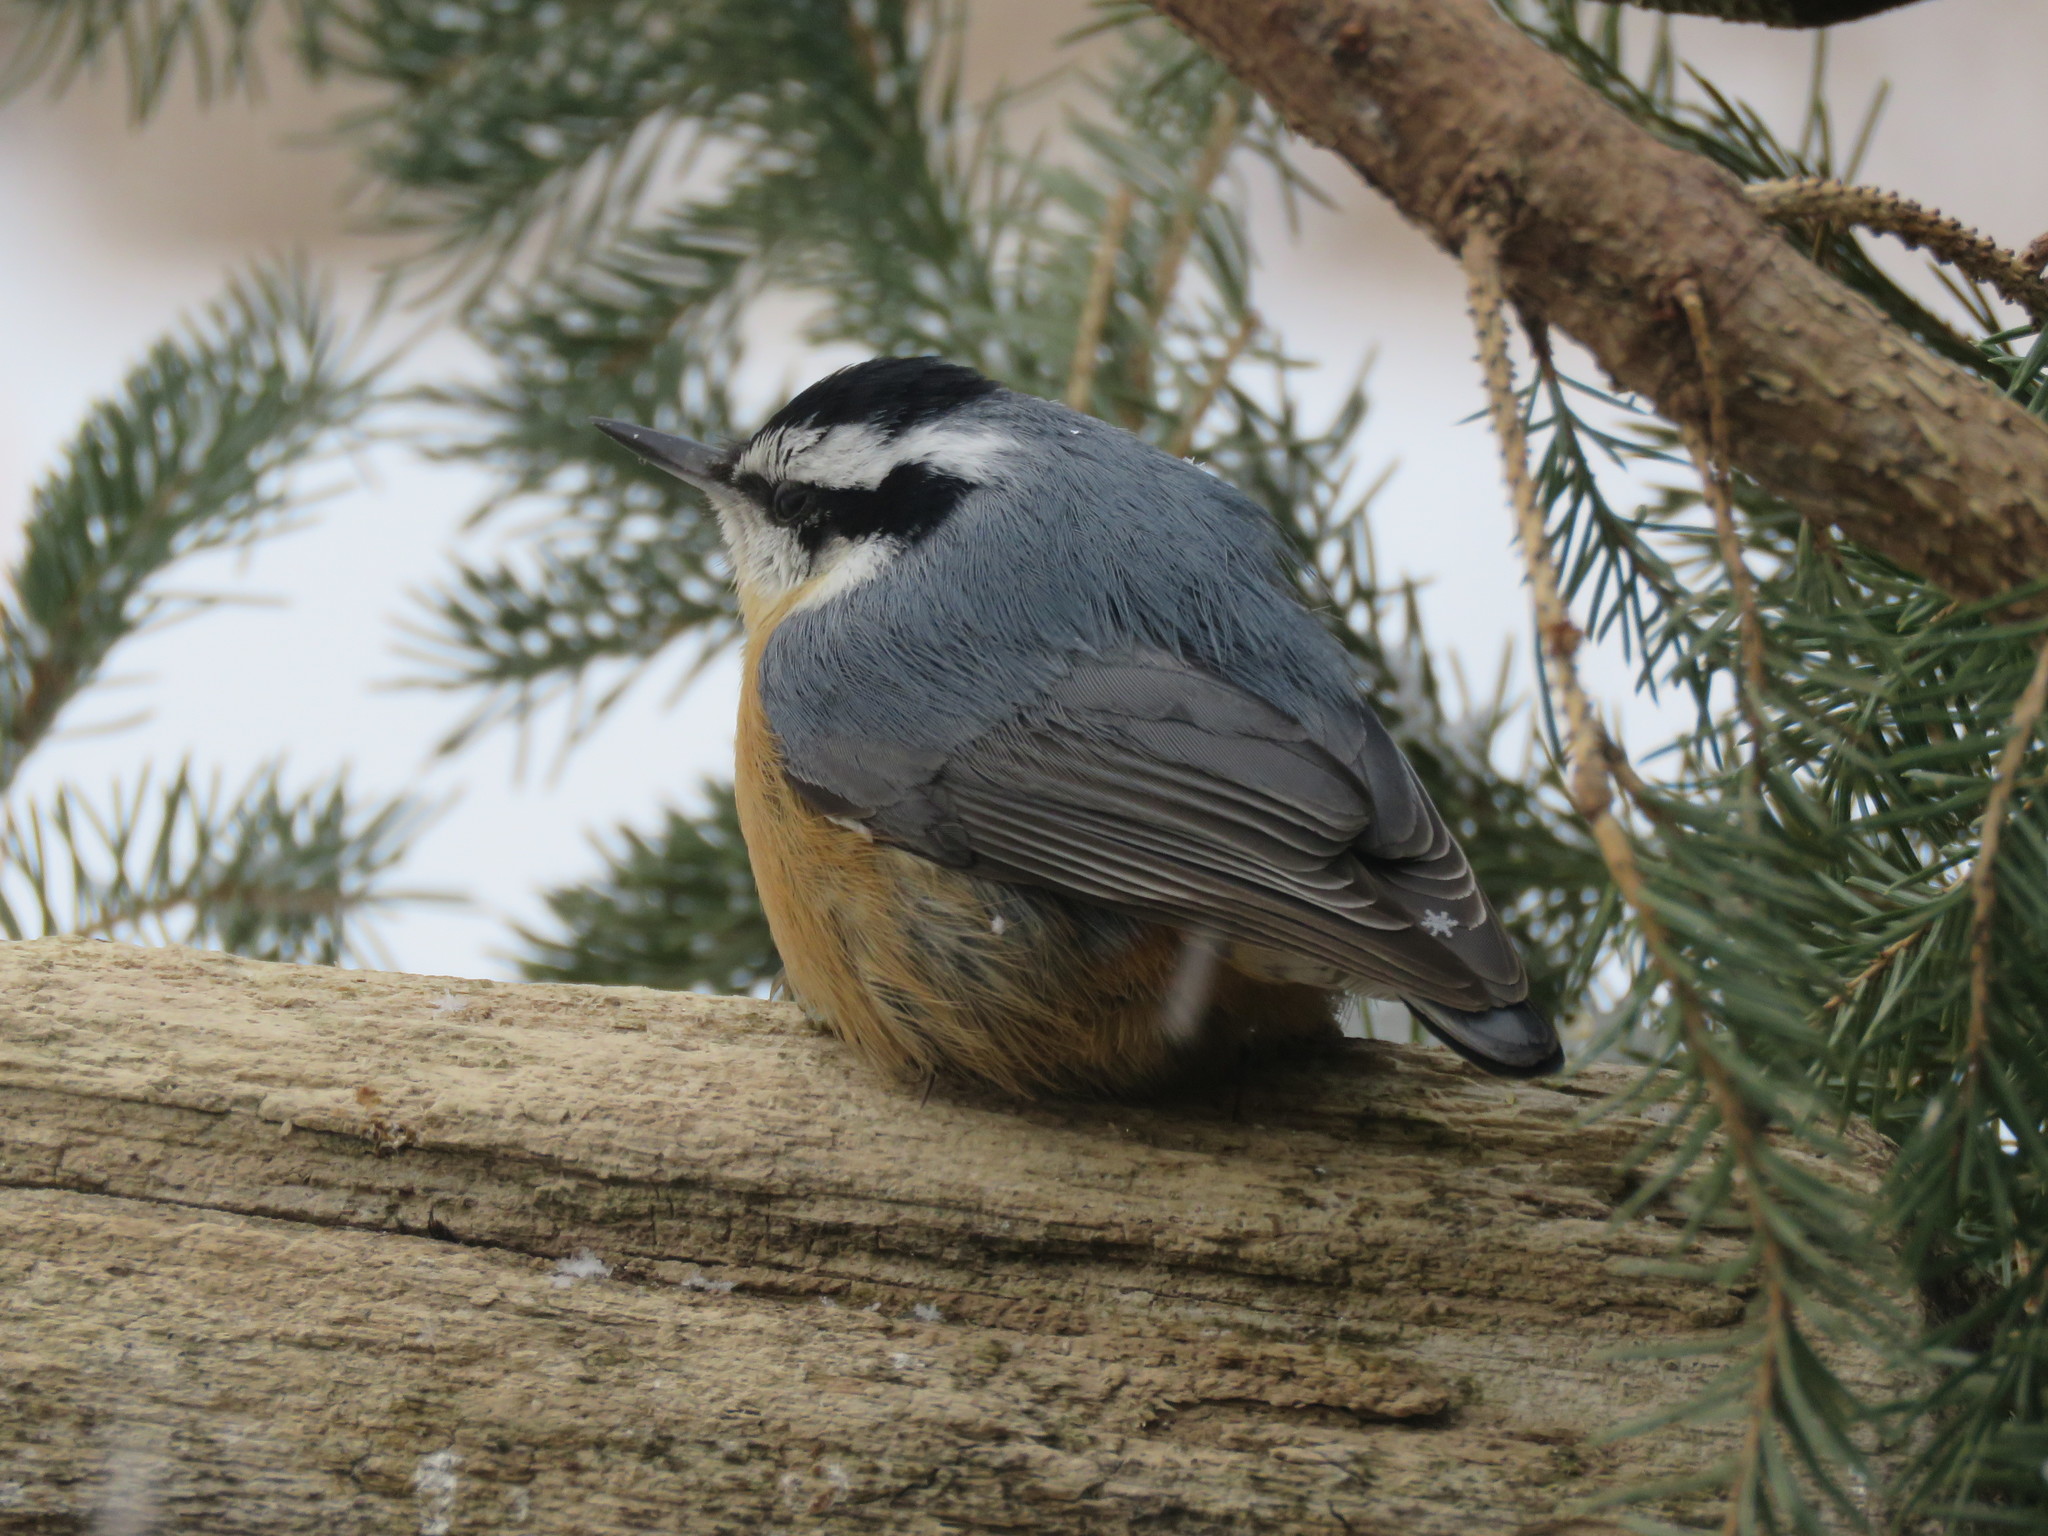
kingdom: Animalia
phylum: Chordata
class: Aves
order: Passeriformes
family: Sittidae
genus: Sitta
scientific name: Sitta canadensis
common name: Red-breasted nuthatch
